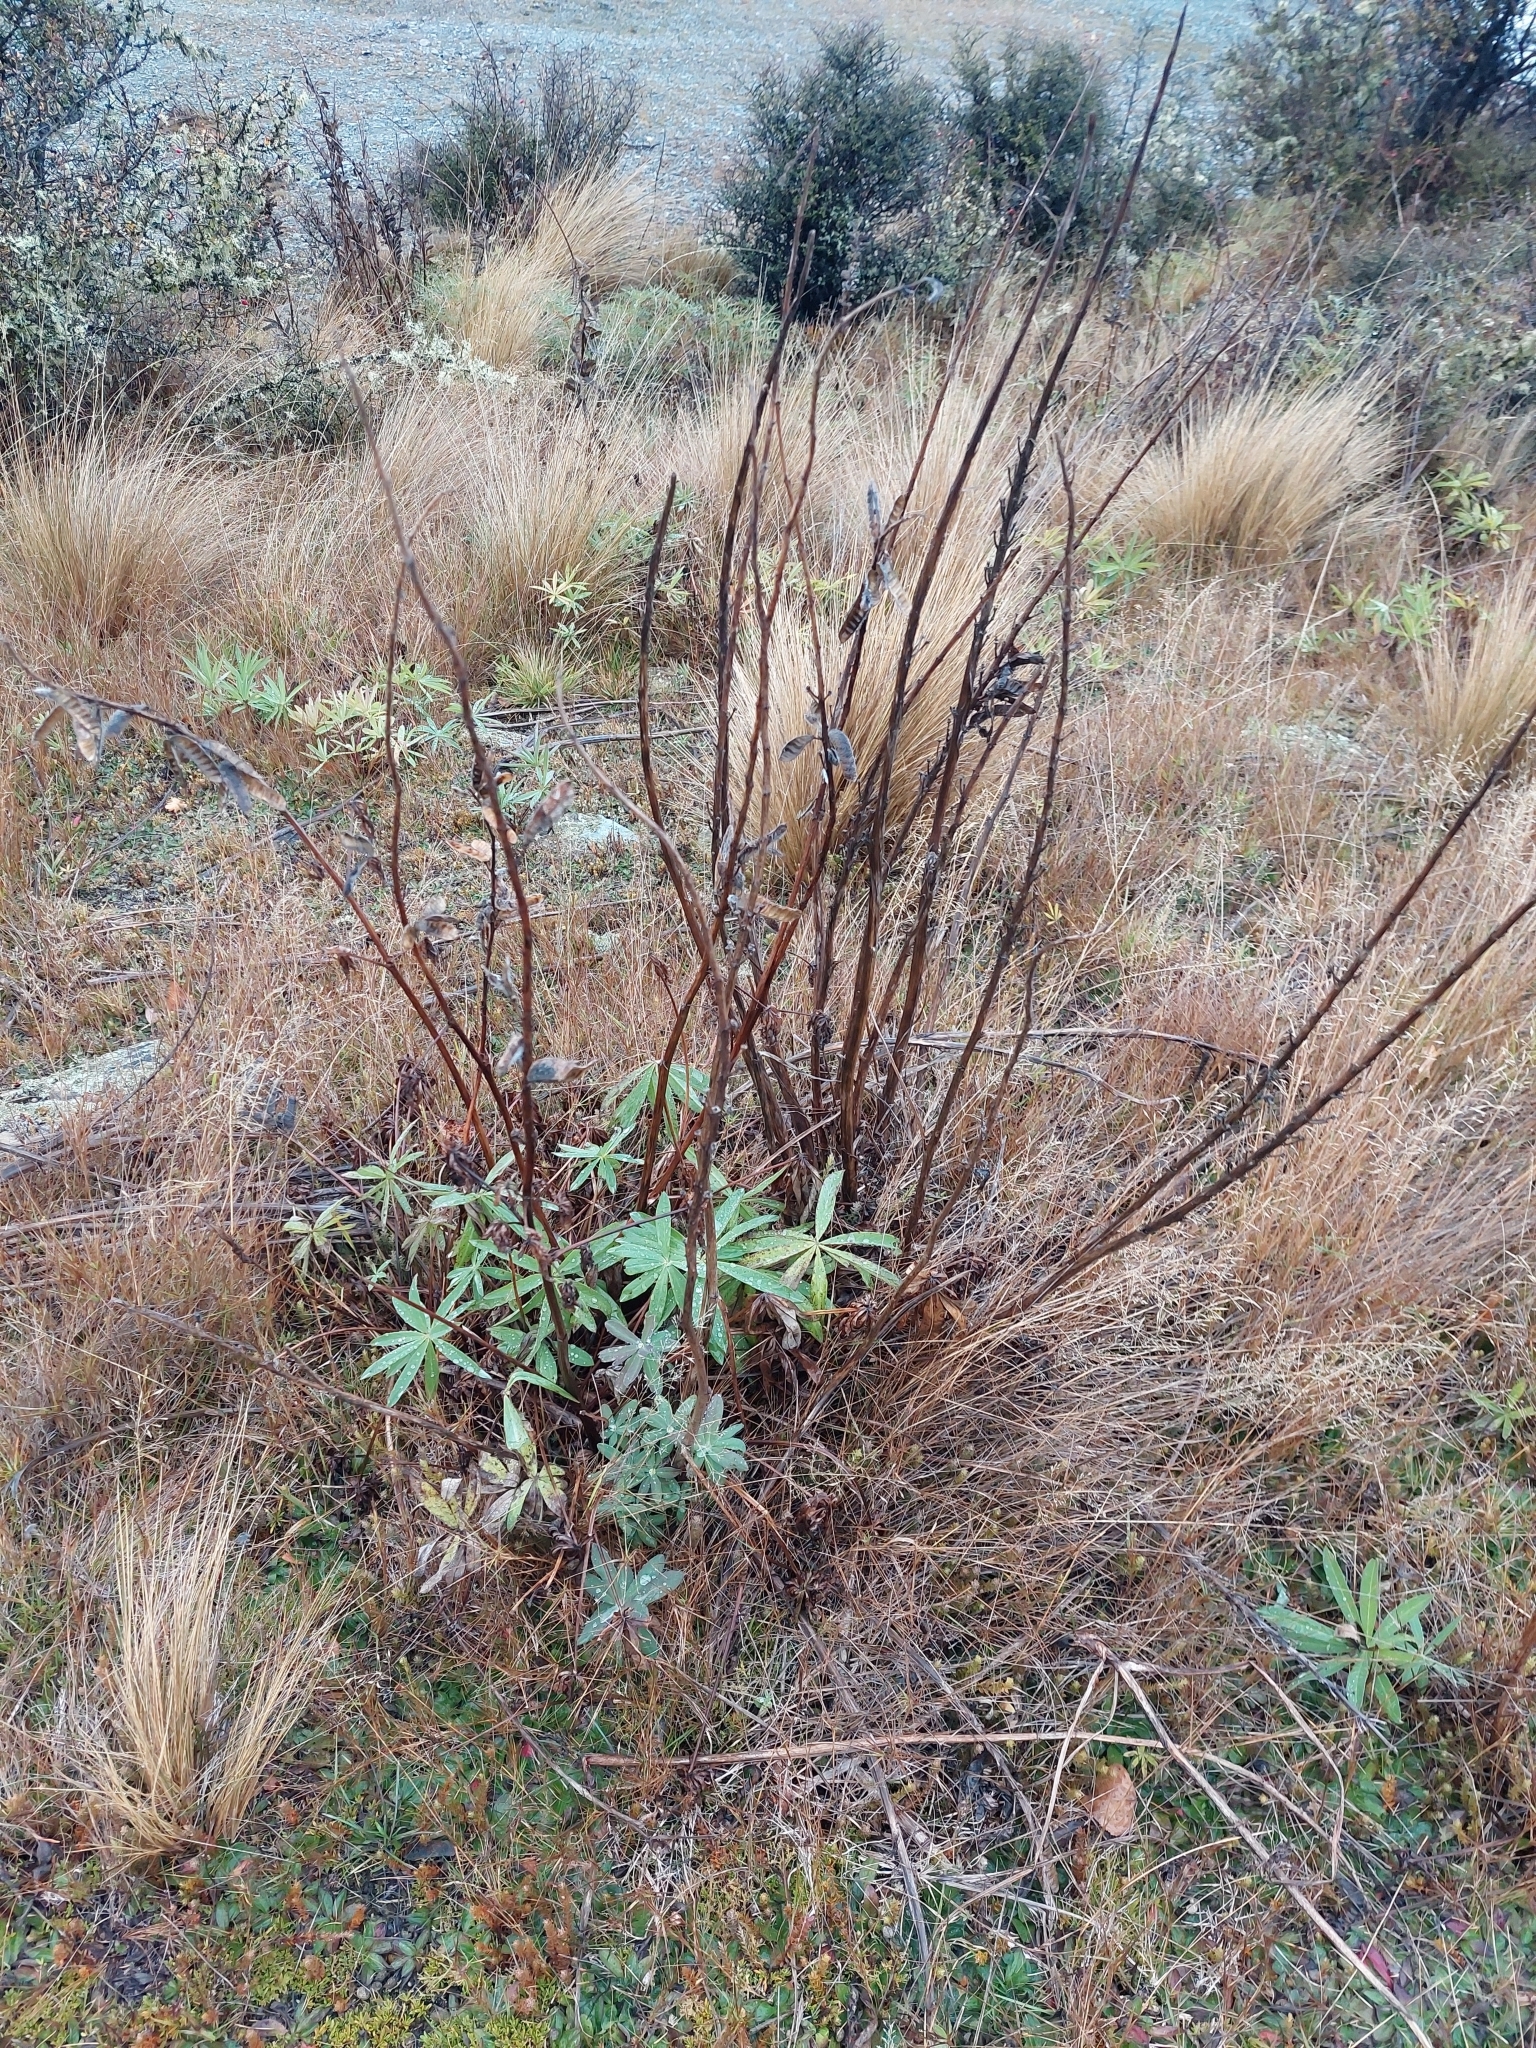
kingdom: Plantae
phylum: Tracheophyta
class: Magnoliopsida
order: Fabales
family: Fabaceae
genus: Lupinus
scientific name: Lupinus polyphyllus
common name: Garden lupin
